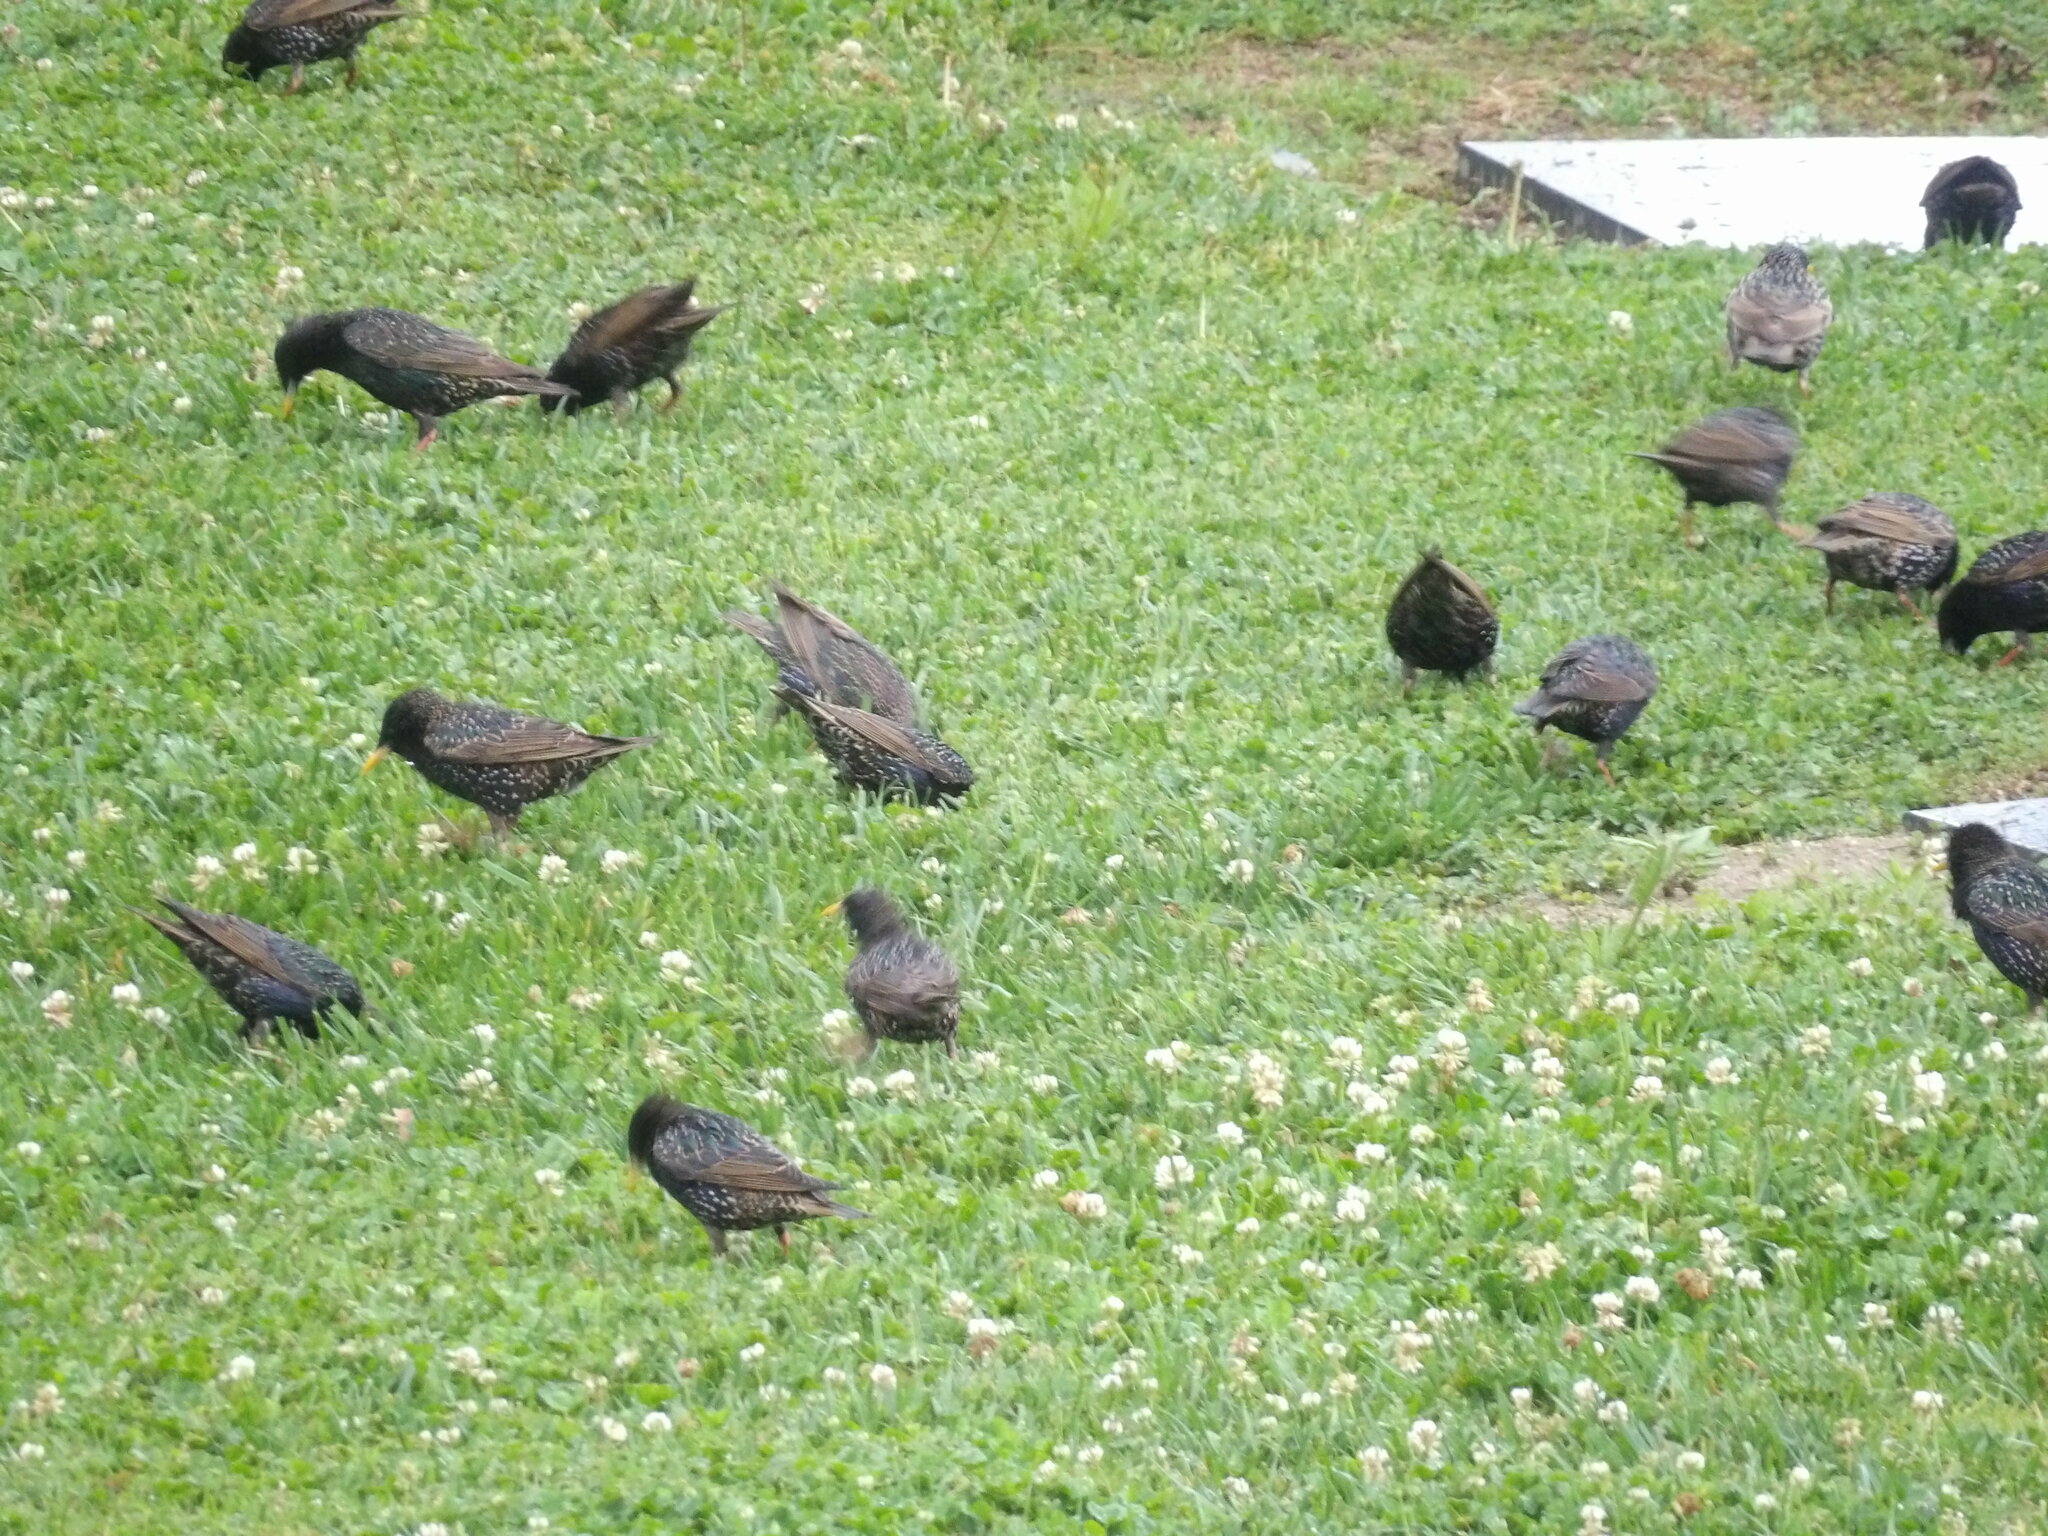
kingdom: Animalia
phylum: Chordata
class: Aves
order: Passeriformes
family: Sturnidae
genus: Sturnus
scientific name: Sturnus vulgaris
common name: Common starling
